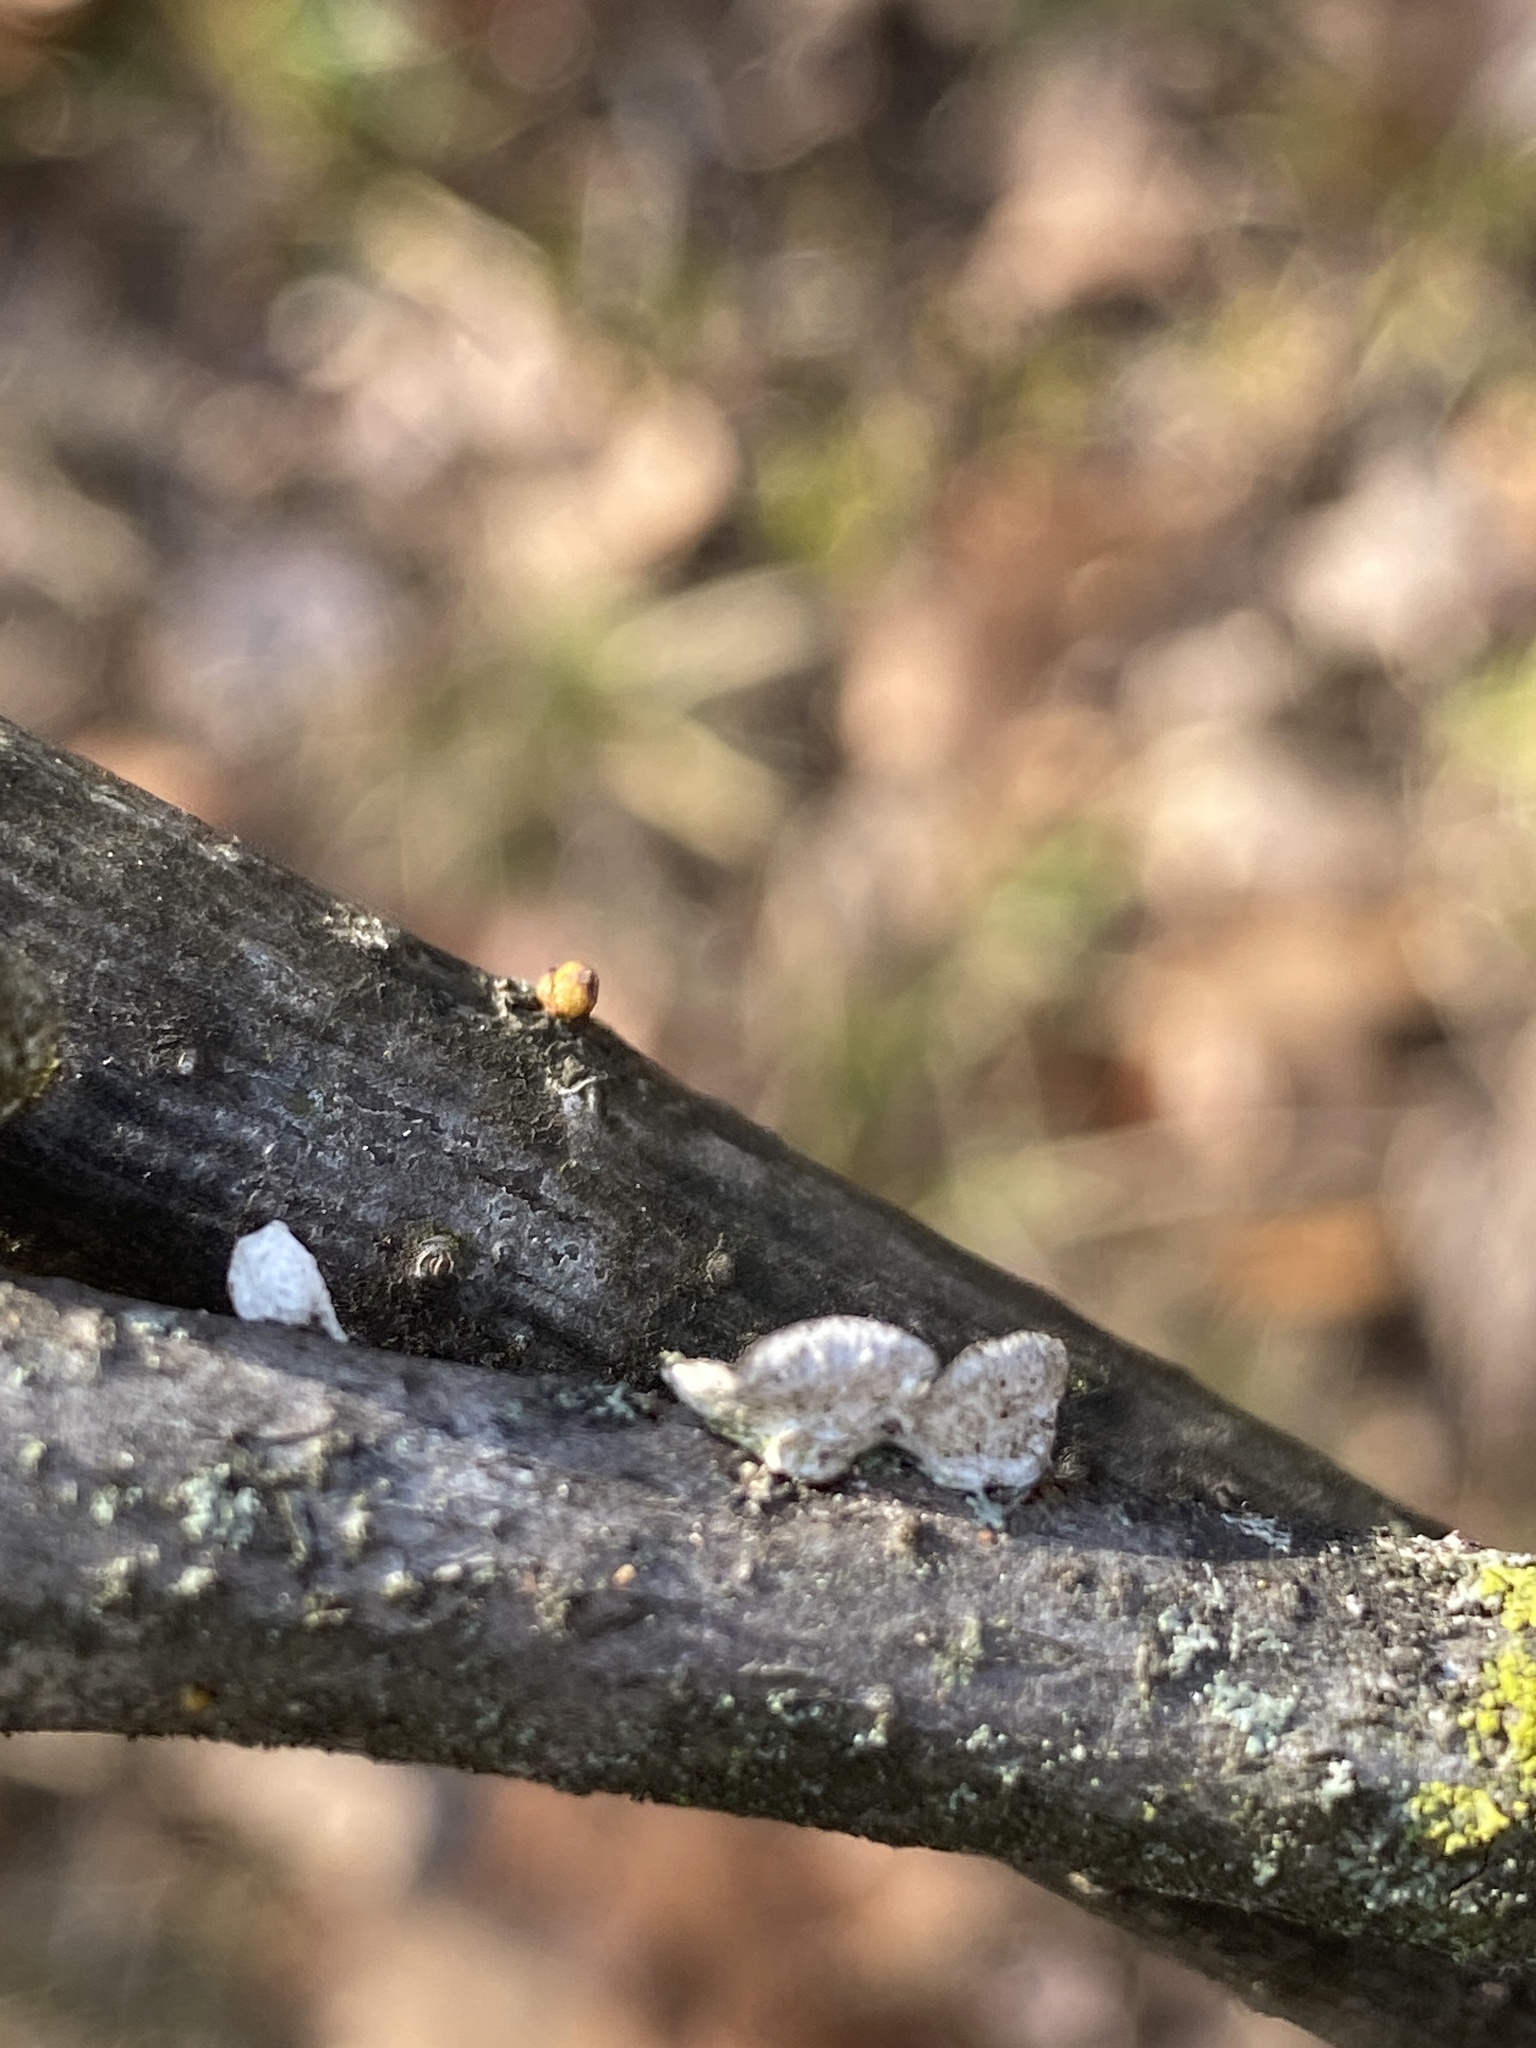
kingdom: Fungi
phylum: Basidiomycota
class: Agaricomycetes
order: Polyporales
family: Polyporaceae
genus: Poronidulus
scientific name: Poronidulus conchifer
